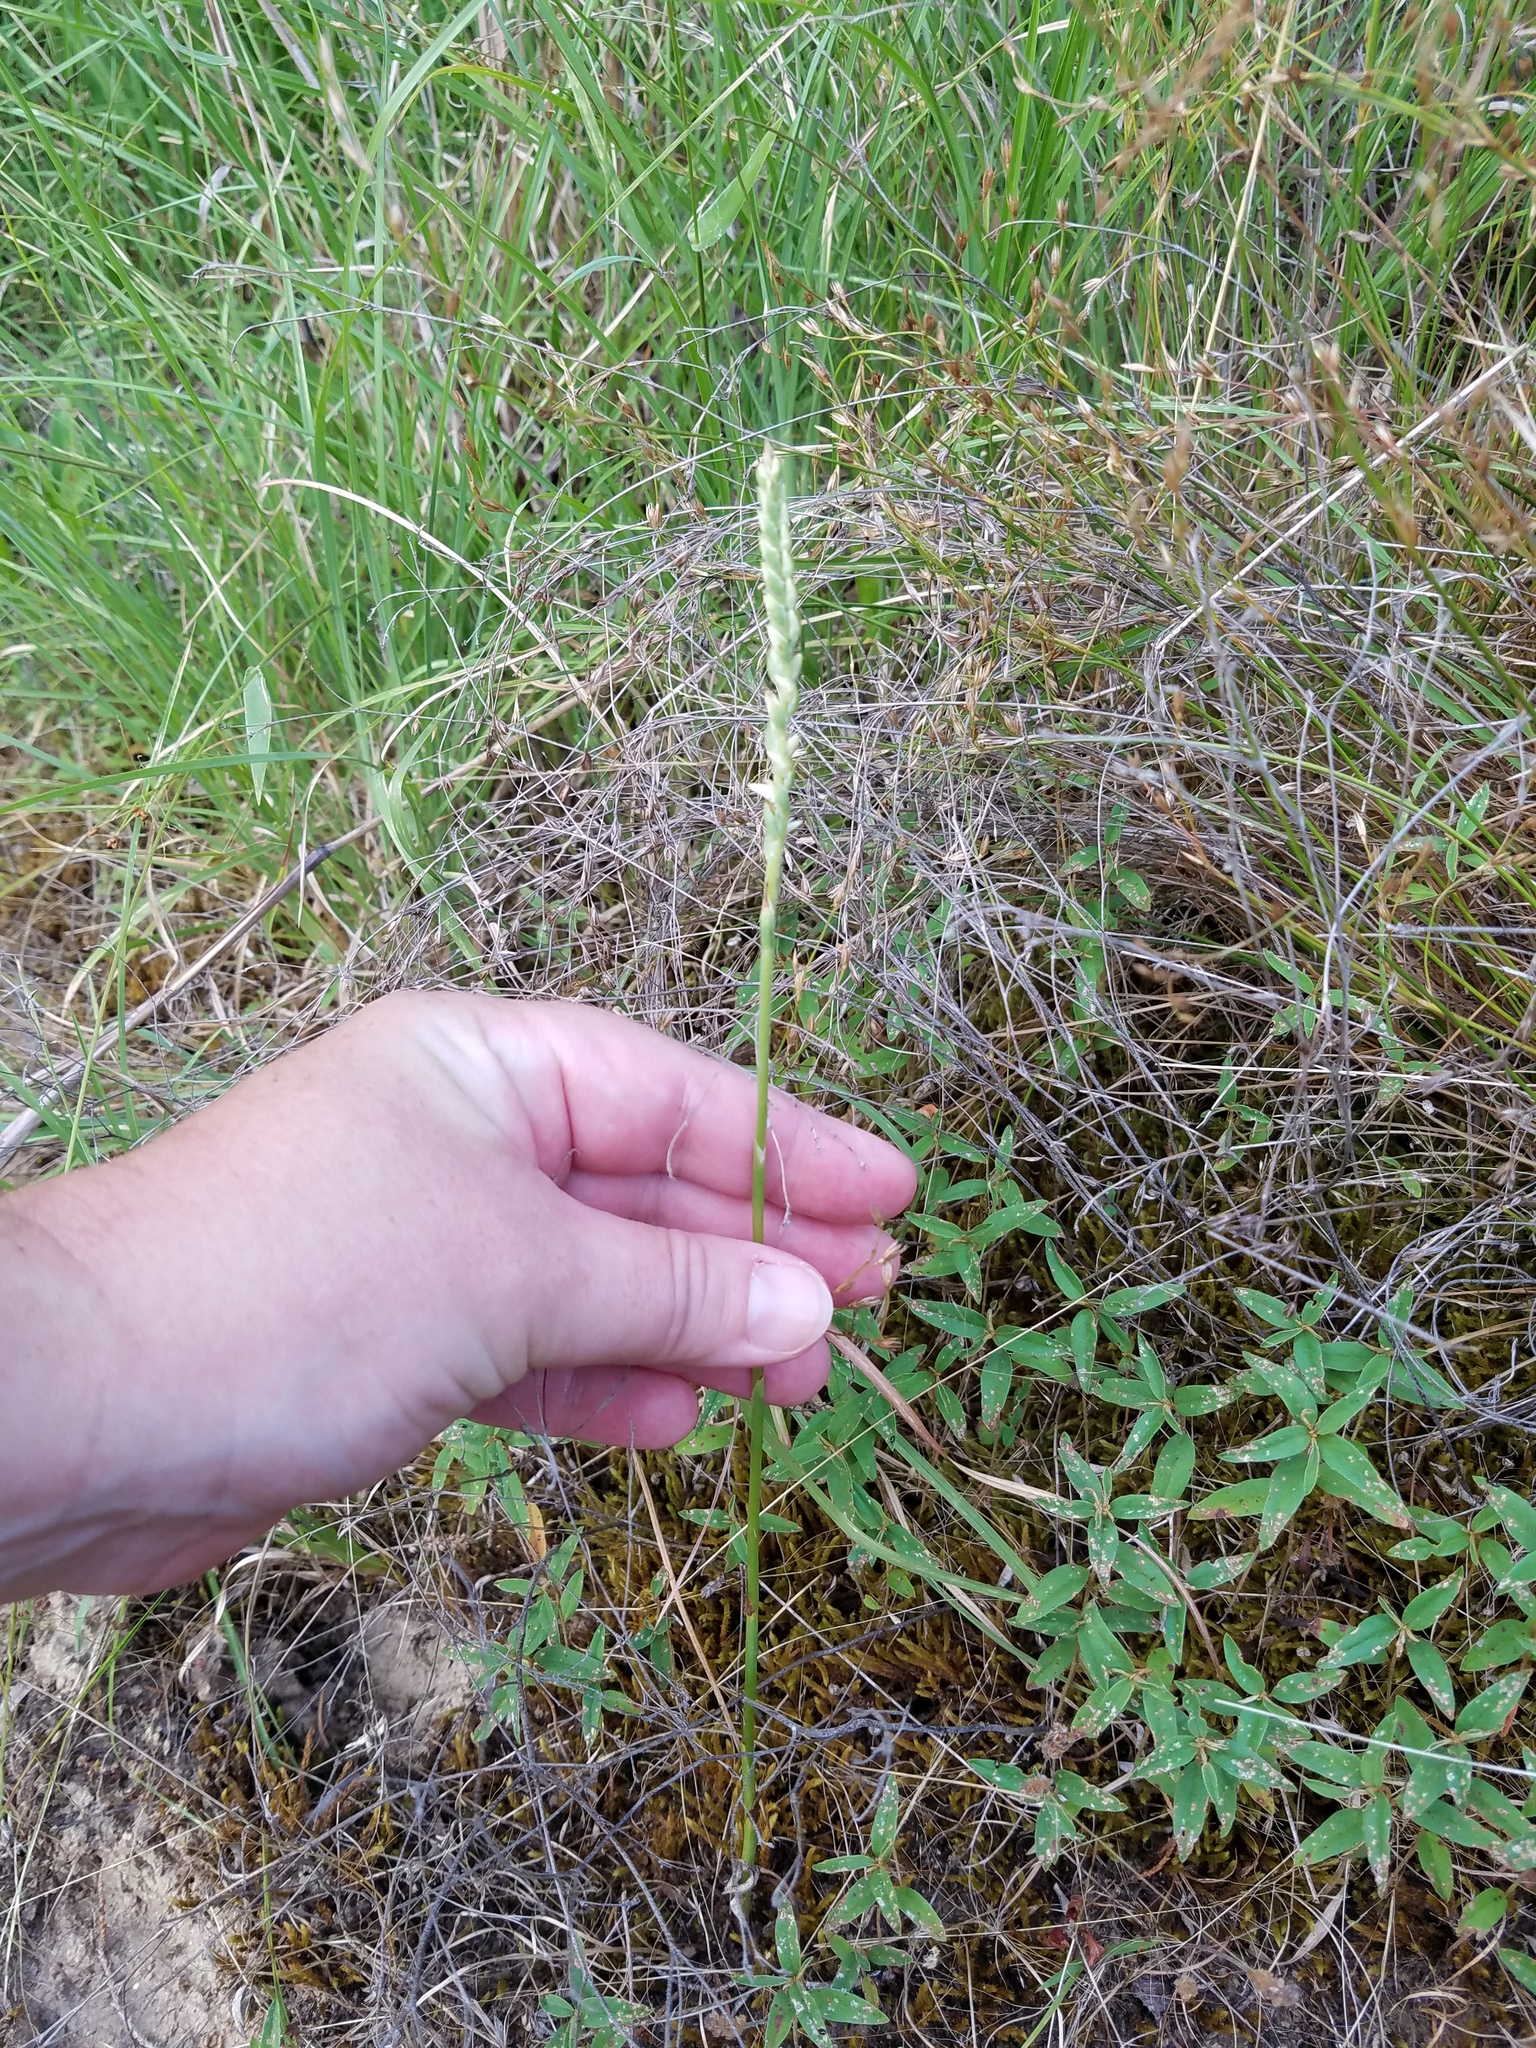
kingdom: Plantae
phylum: Tracheophyta
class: Liliopsida
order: Asparagales
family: Orchidaceae
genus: Spiranthes
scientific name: Spiranthes vernalis
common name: Spring ladies'-tresses
